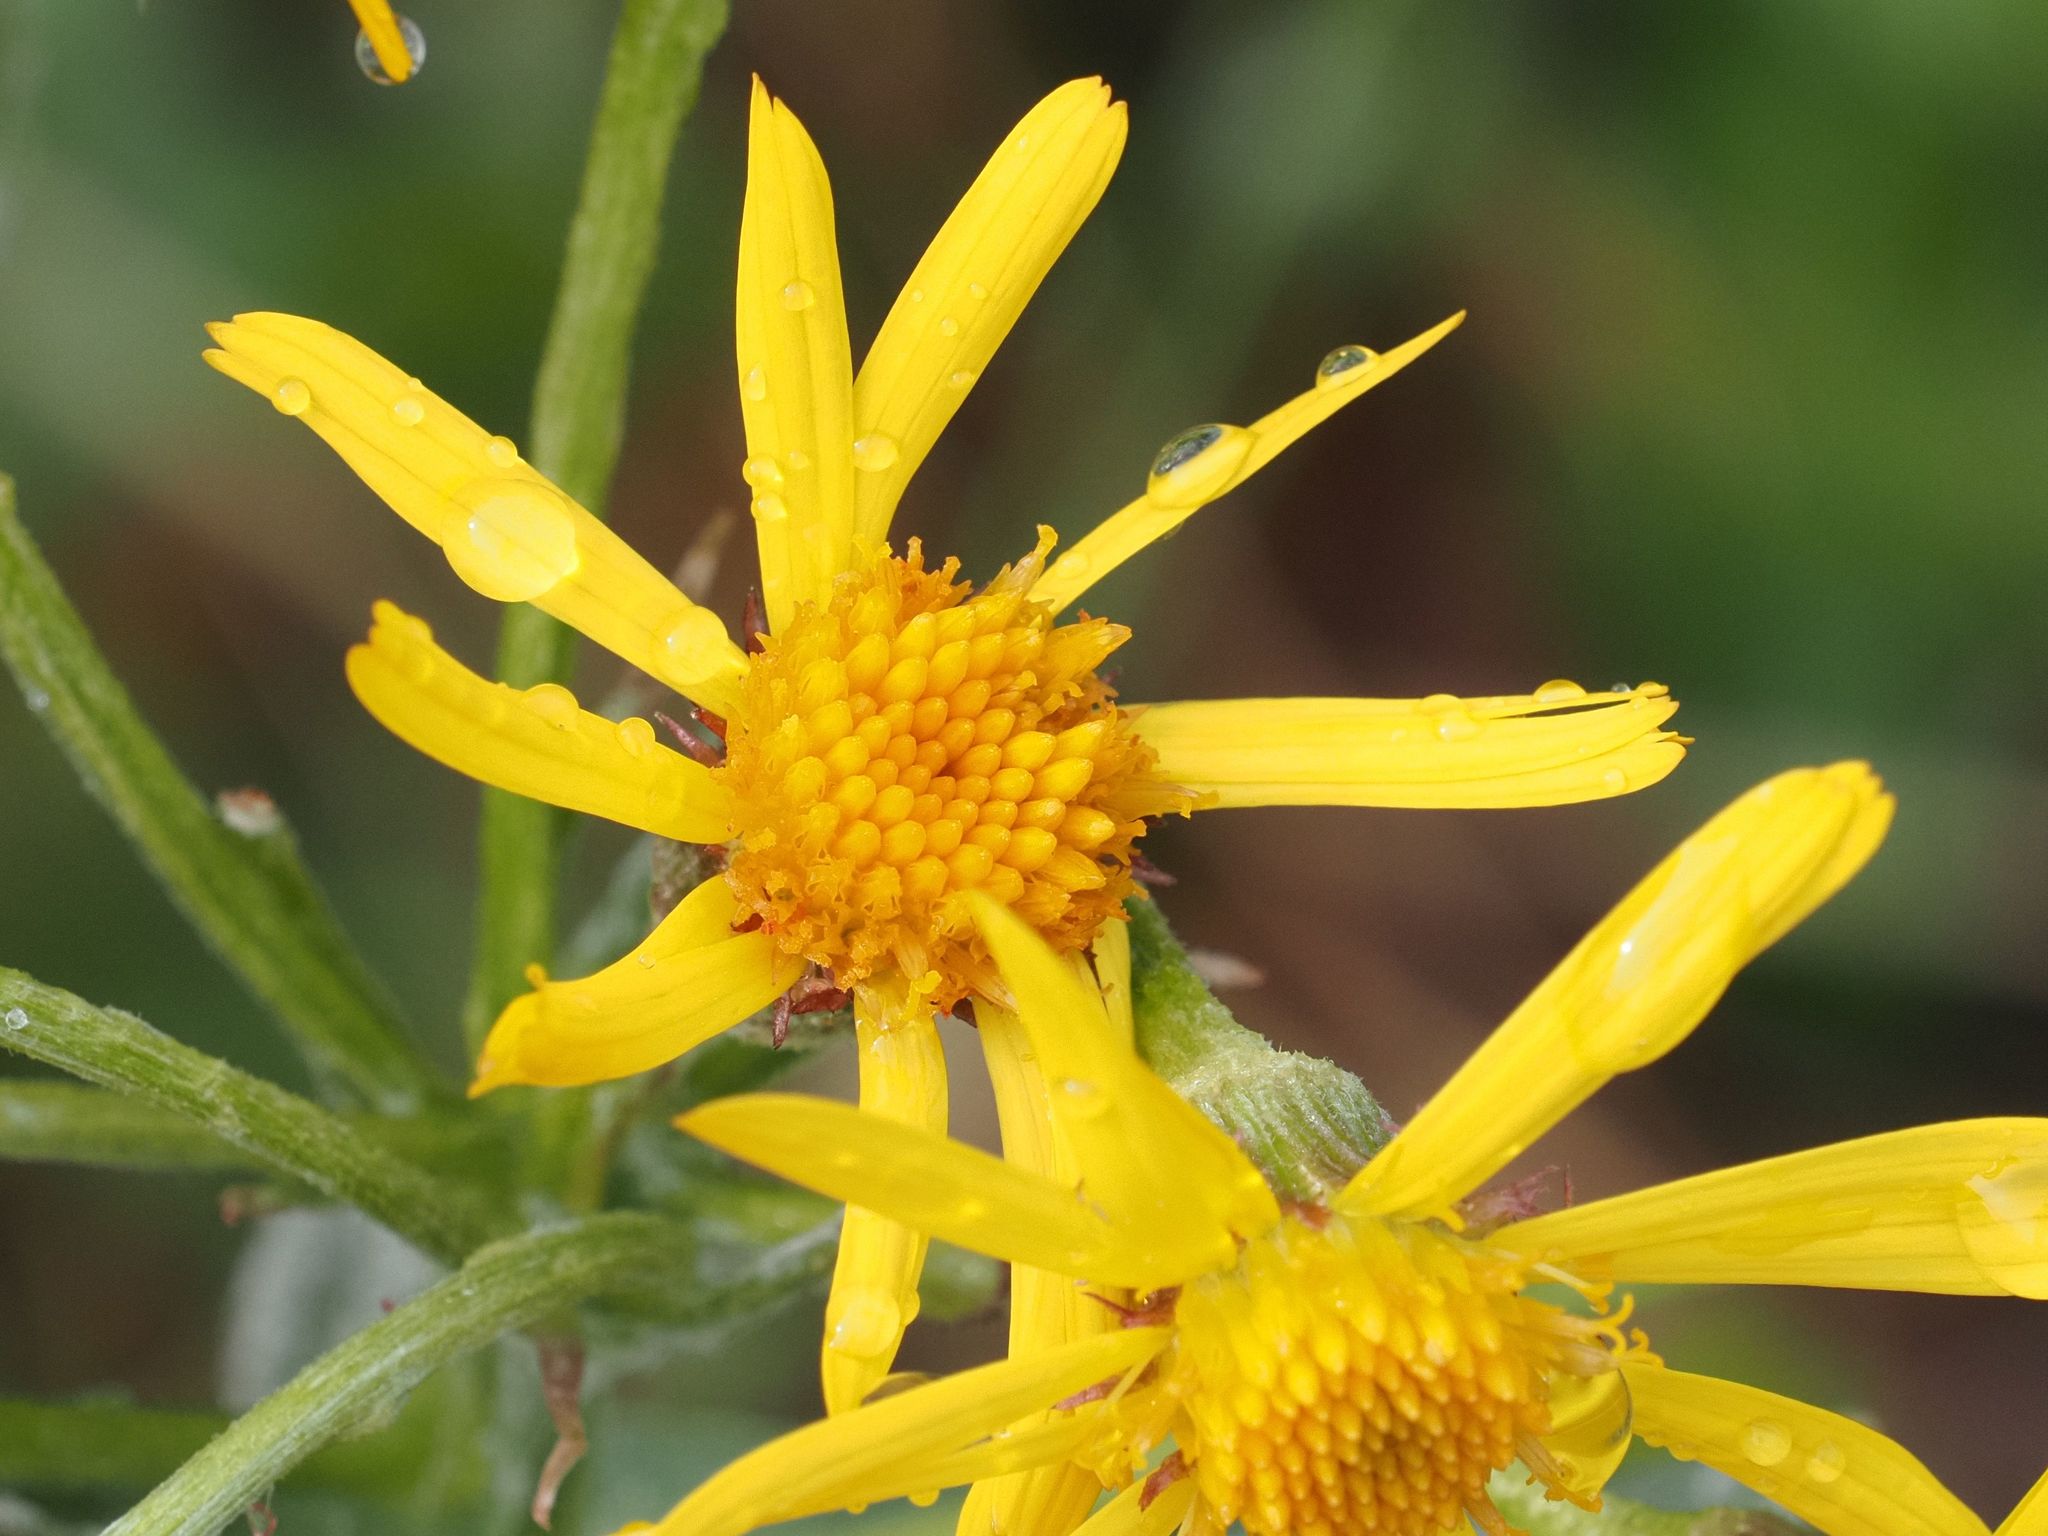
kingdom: Plantae
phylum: Tracheophyta
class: Magnoliopsida
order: Asterales
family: Asteraceae
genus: Tephroseris
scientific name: Tephroseris integrifolia
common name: Field fleawort
